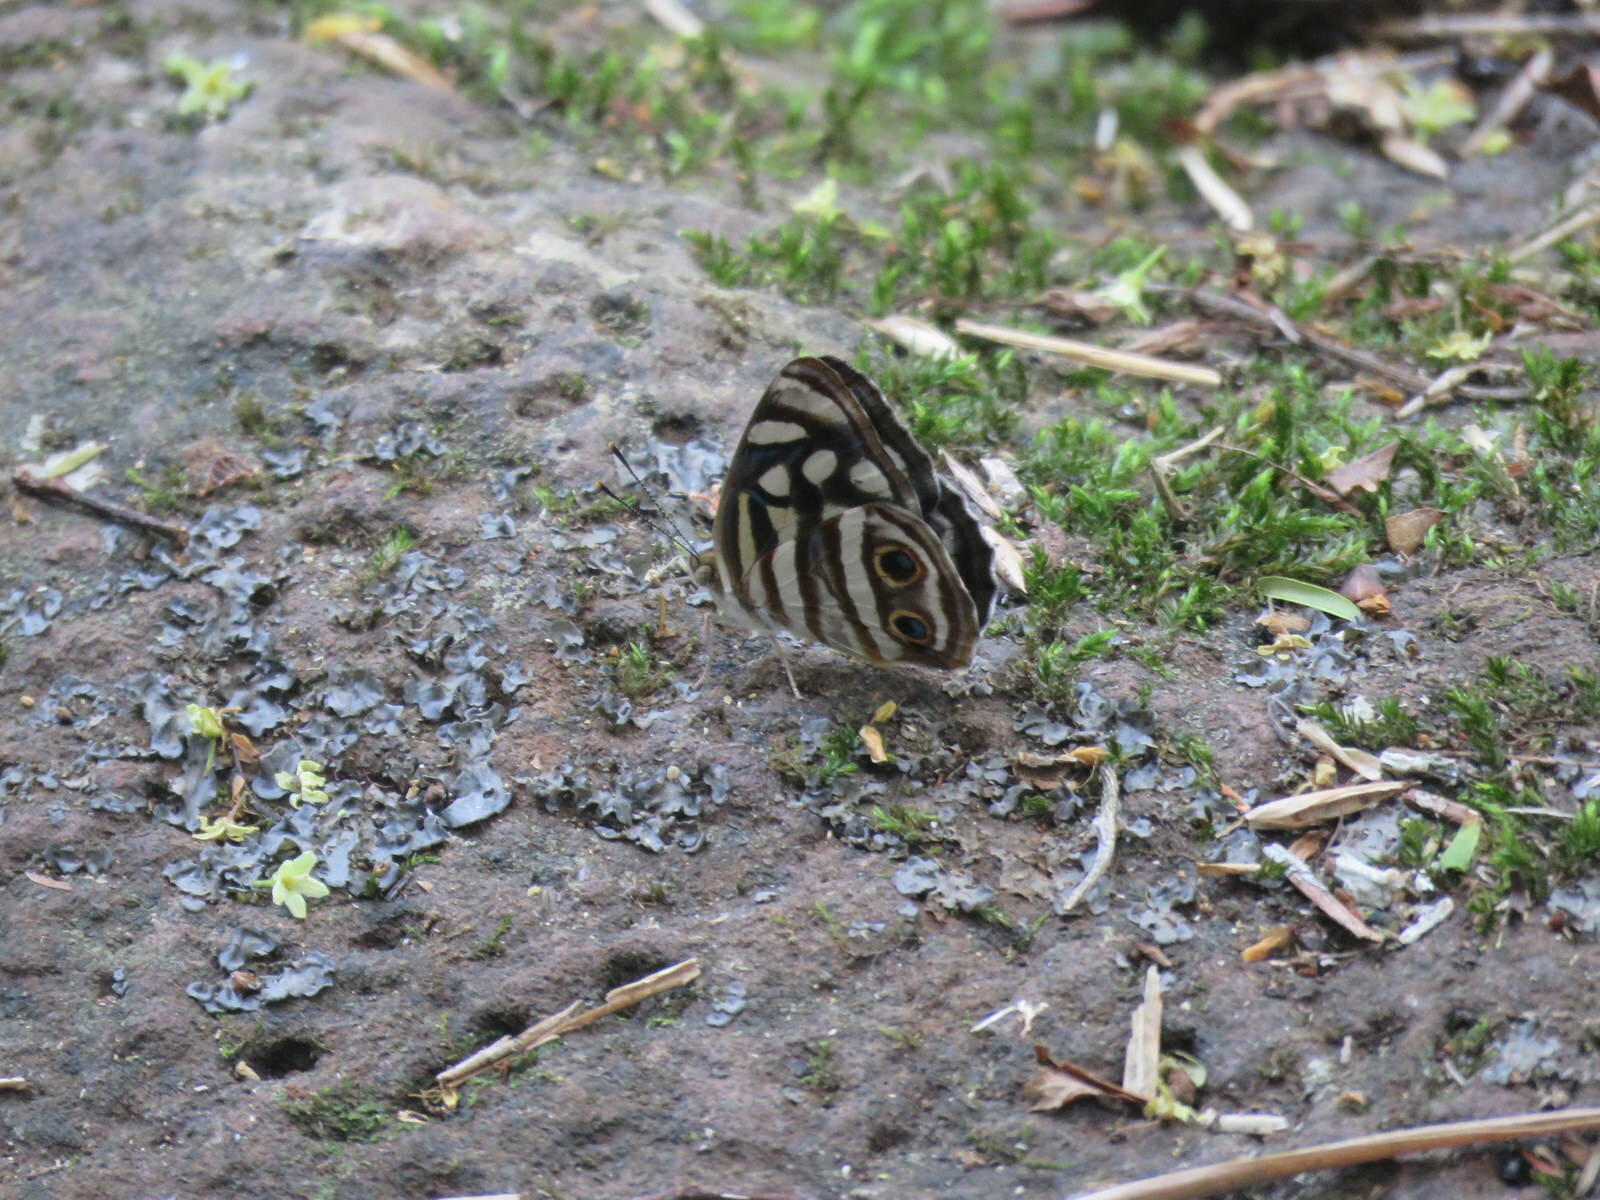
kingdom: Animalia
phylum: Arthropoda
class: Insecta
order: Lepidoptera
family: Nymphalidae
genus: Dynamine
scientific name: Dynamine mylitta
